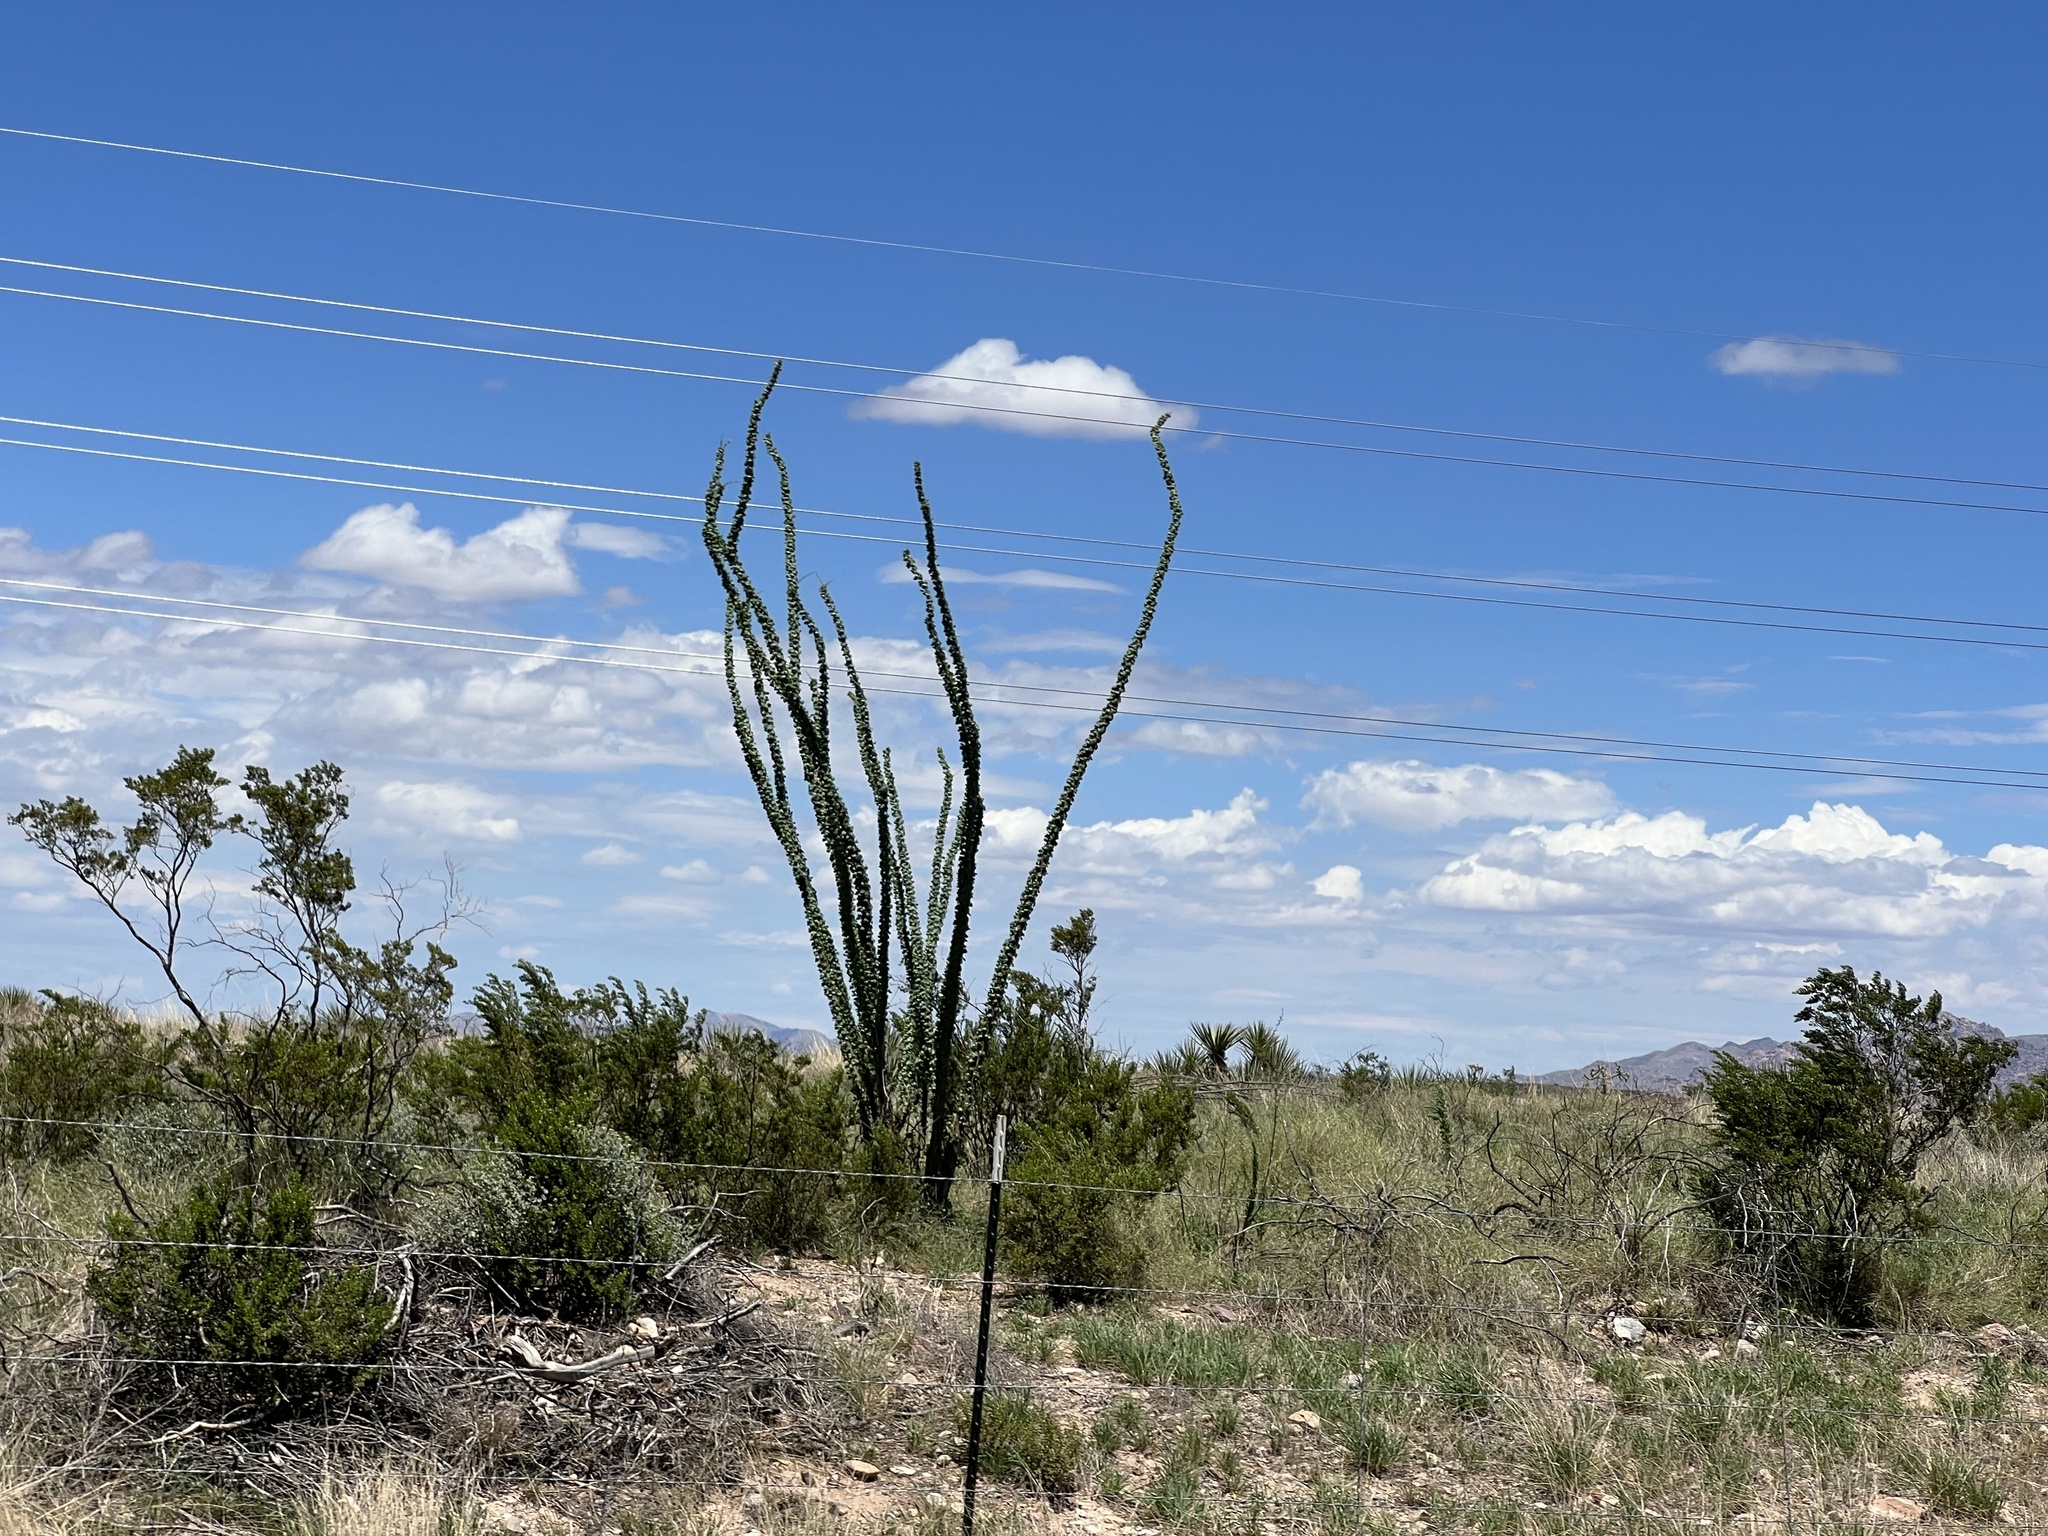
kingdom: Plantae
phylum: Tracheophyta
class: Magnoliopsida
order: Ericales
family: Fouquieriaceae
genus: Fouquieria
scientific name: Fouquieria splendens
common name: Vine-cactus
